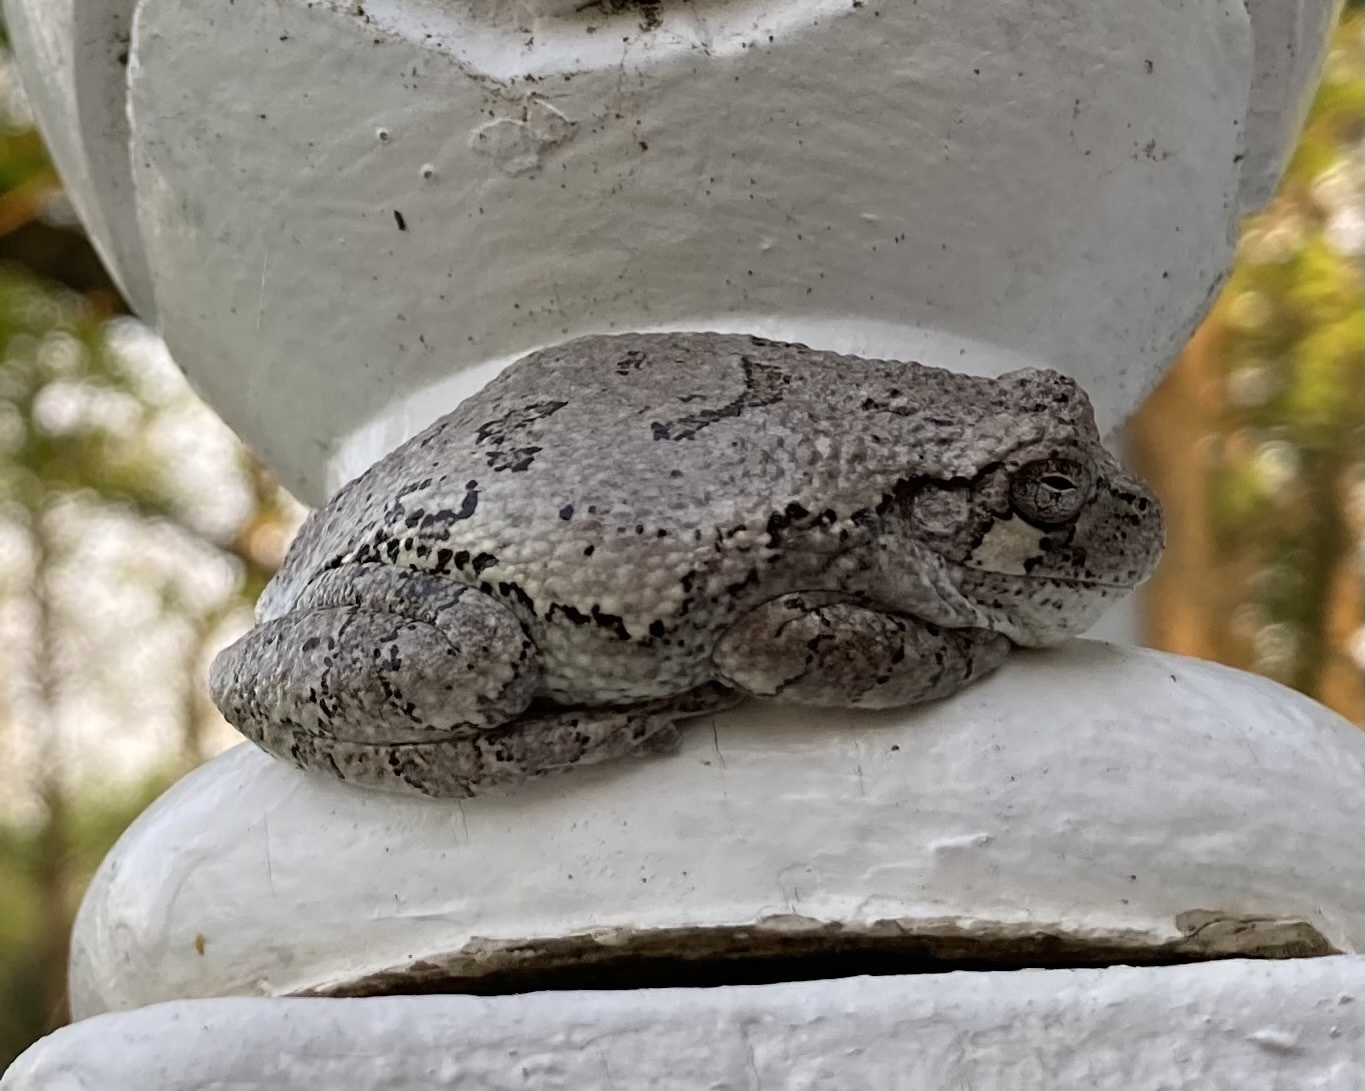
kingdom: Animalia
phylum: Chordata
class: Amphibia
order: Anura
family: Hylidae
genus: Hyla
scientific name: Hyla
